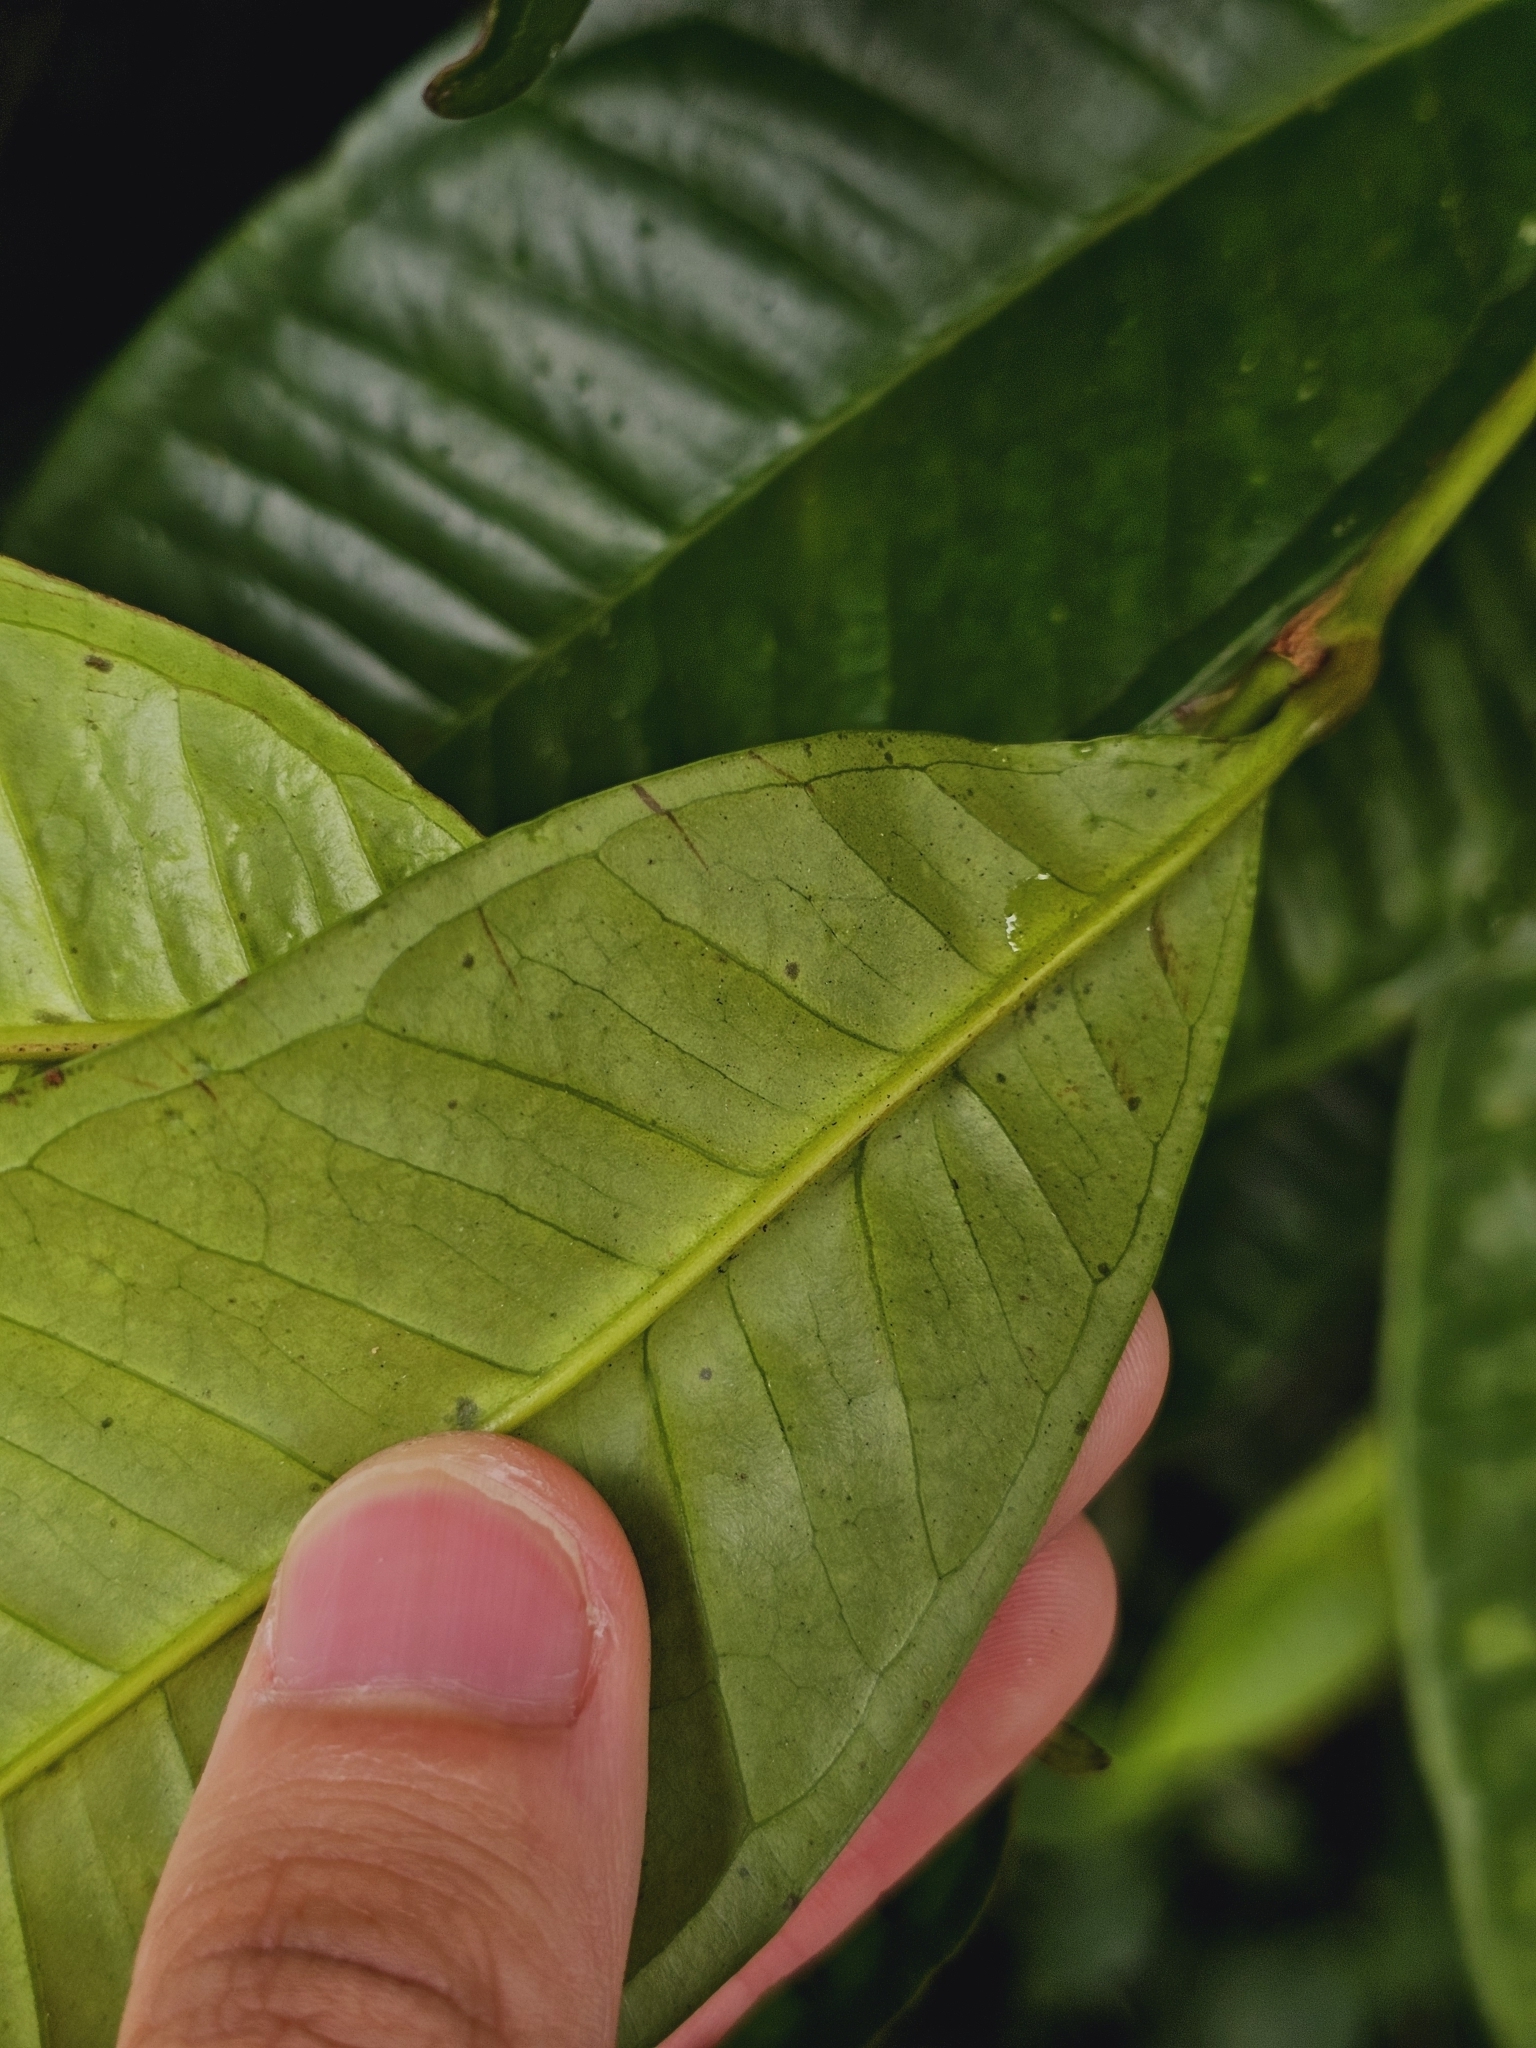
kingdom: Plantae
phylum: Tracheophyta
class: Magnoliopsida
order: Myrtales
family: Myrtaceae
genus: Syzygium
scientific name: Syzygium borneense
